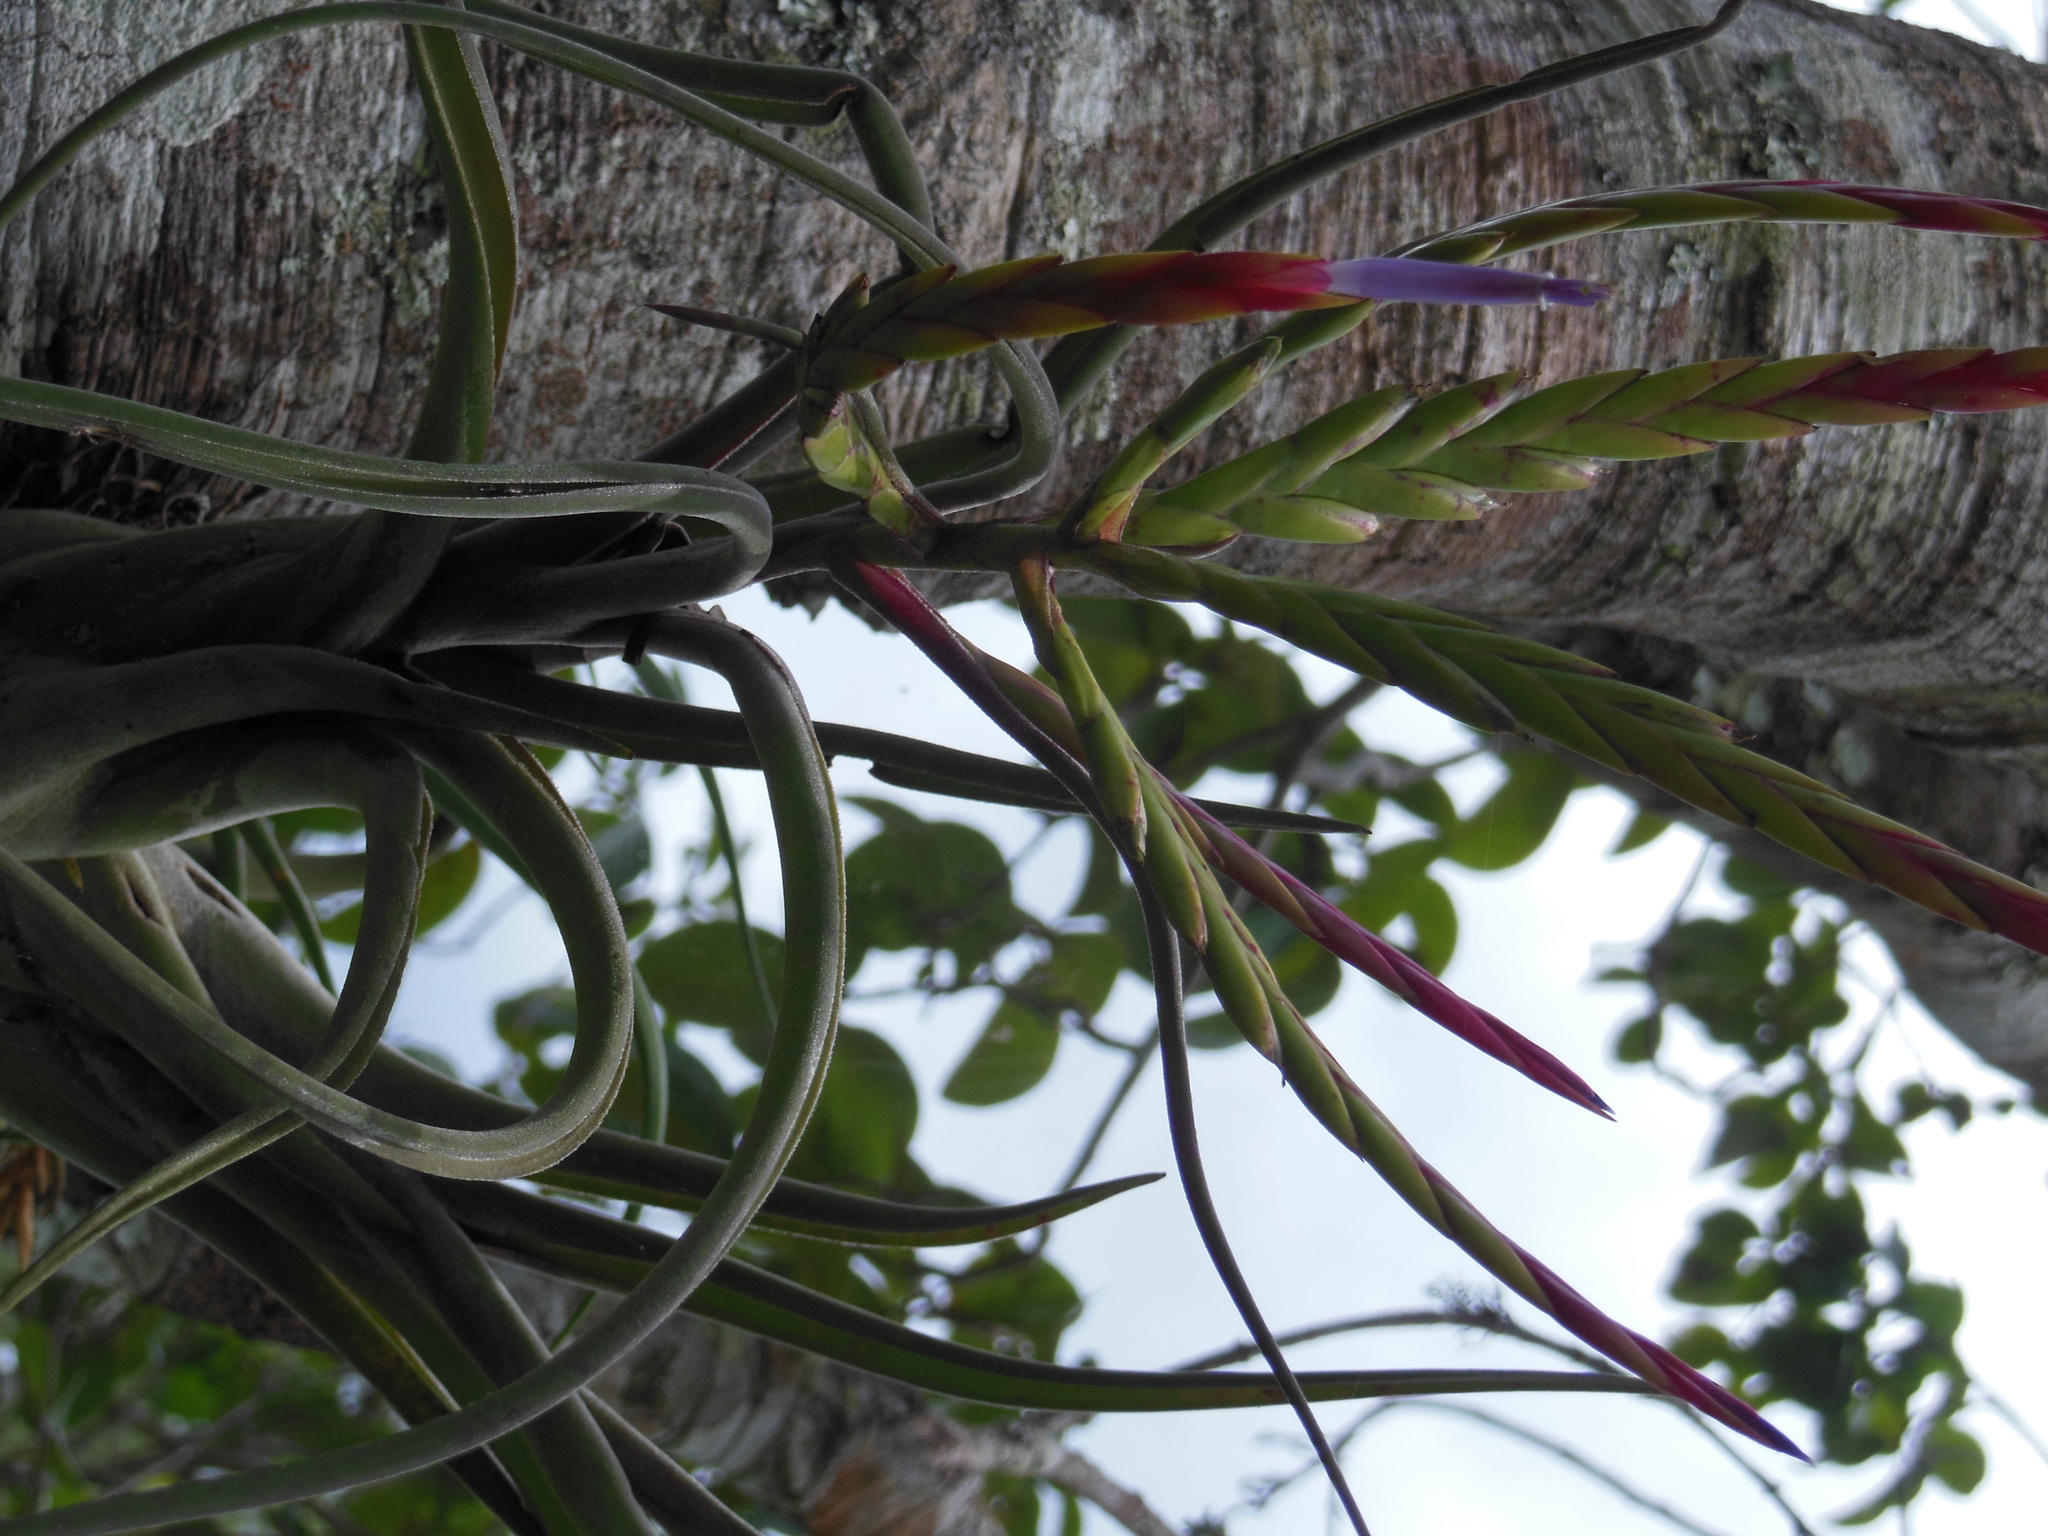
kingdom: Plantae
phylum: Tracheophyta
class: Liliopsida
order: Poales
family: Bromeliaceae
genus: Tillandsia
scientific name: Tillandsia caput-medusae
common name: Octopus plant
